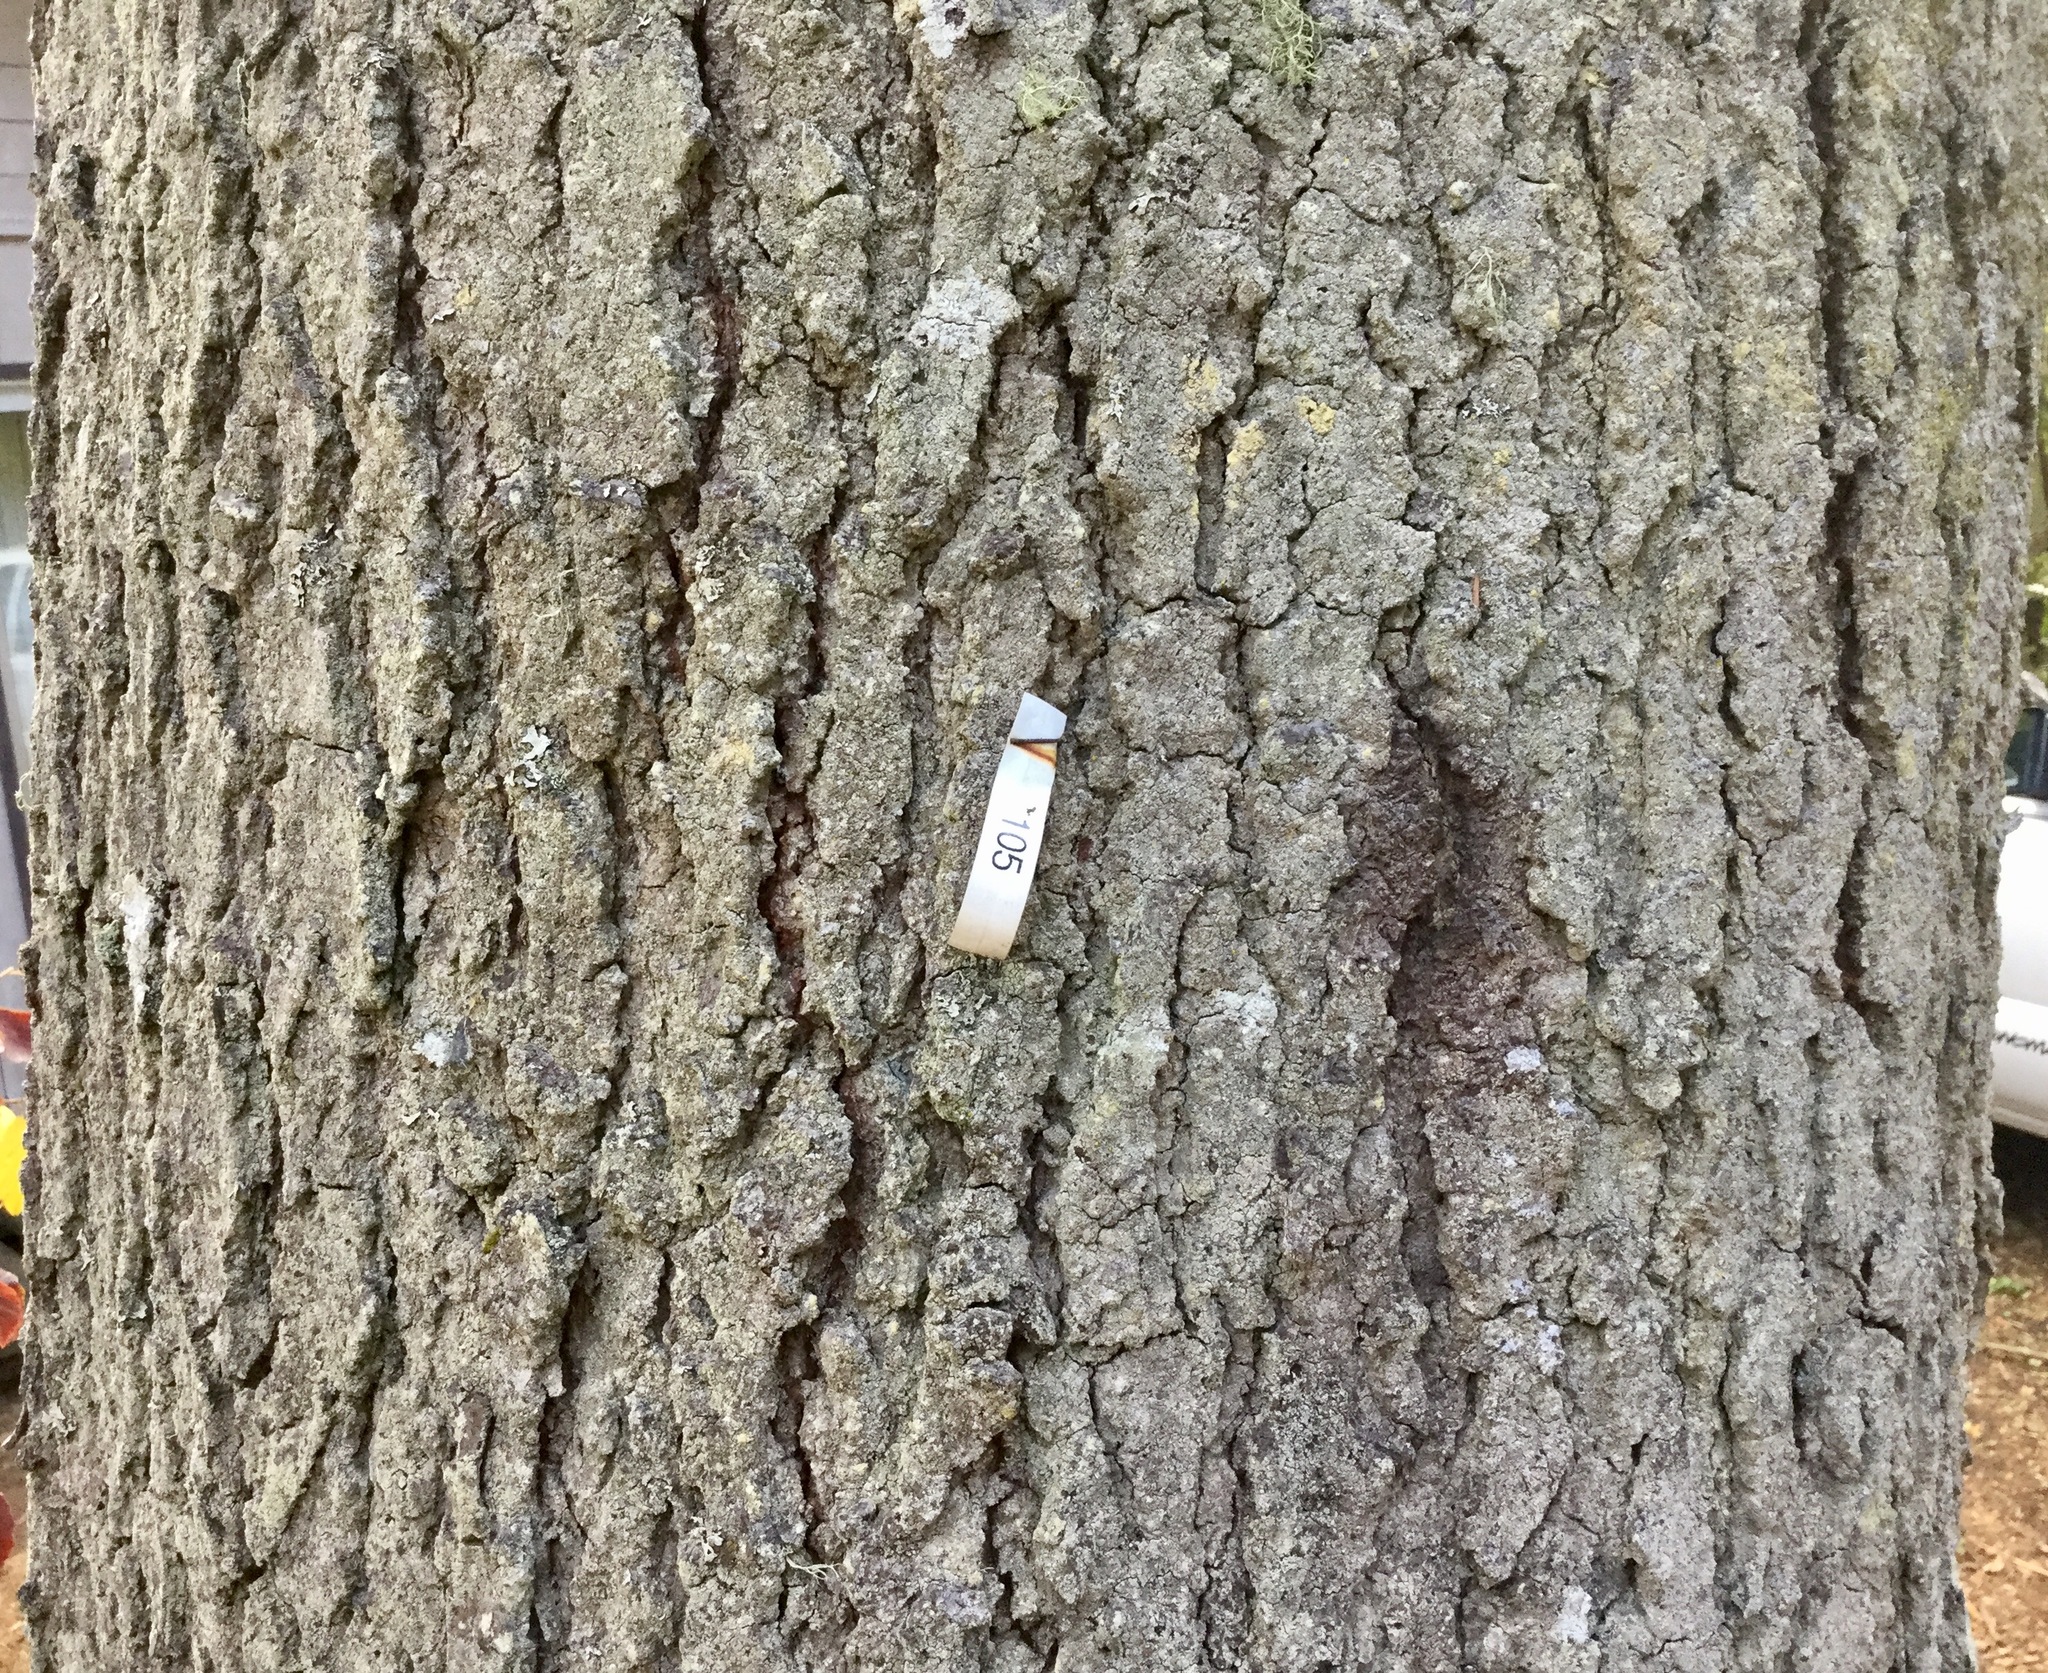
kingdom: Plantae
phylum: Tracheophyta
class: Pinopsida
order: Pinales
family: Pinaceae
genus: Abies
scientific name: Abies grandis
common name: Giant fir
